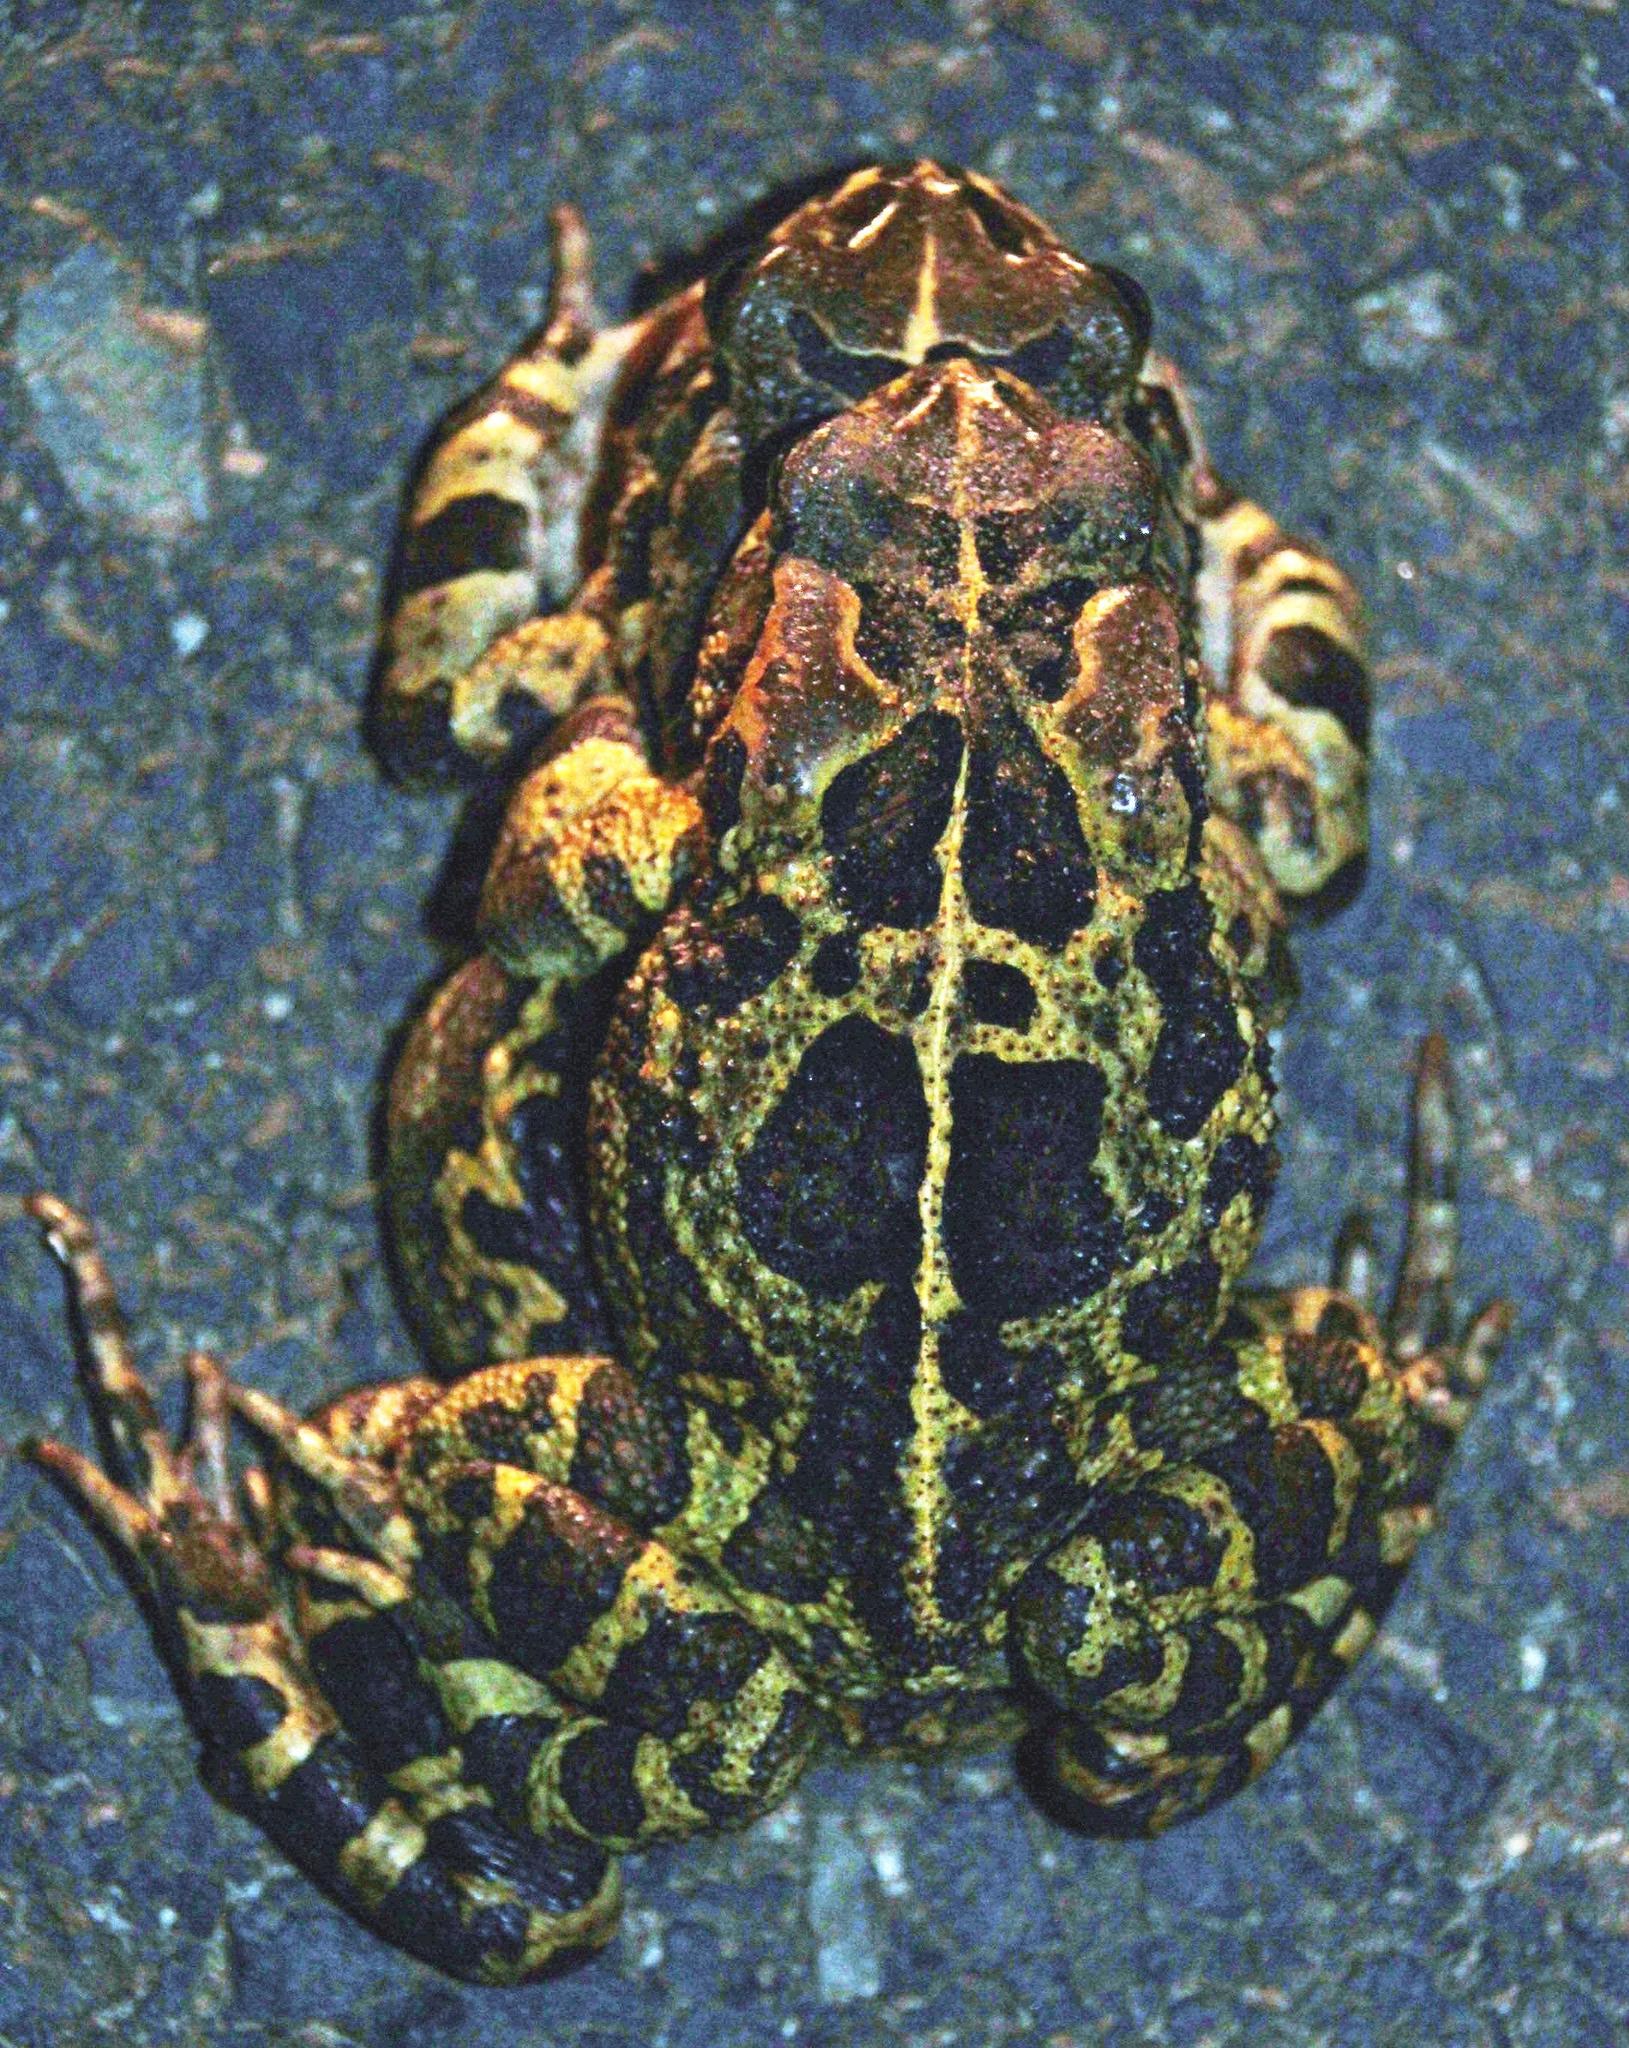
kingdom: Animalia
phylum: Chordata
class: Amphibia
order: Anura
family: Bufonidae
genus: Sclerophrys
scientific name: Sclerophrys pantherina
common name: Panther toad
